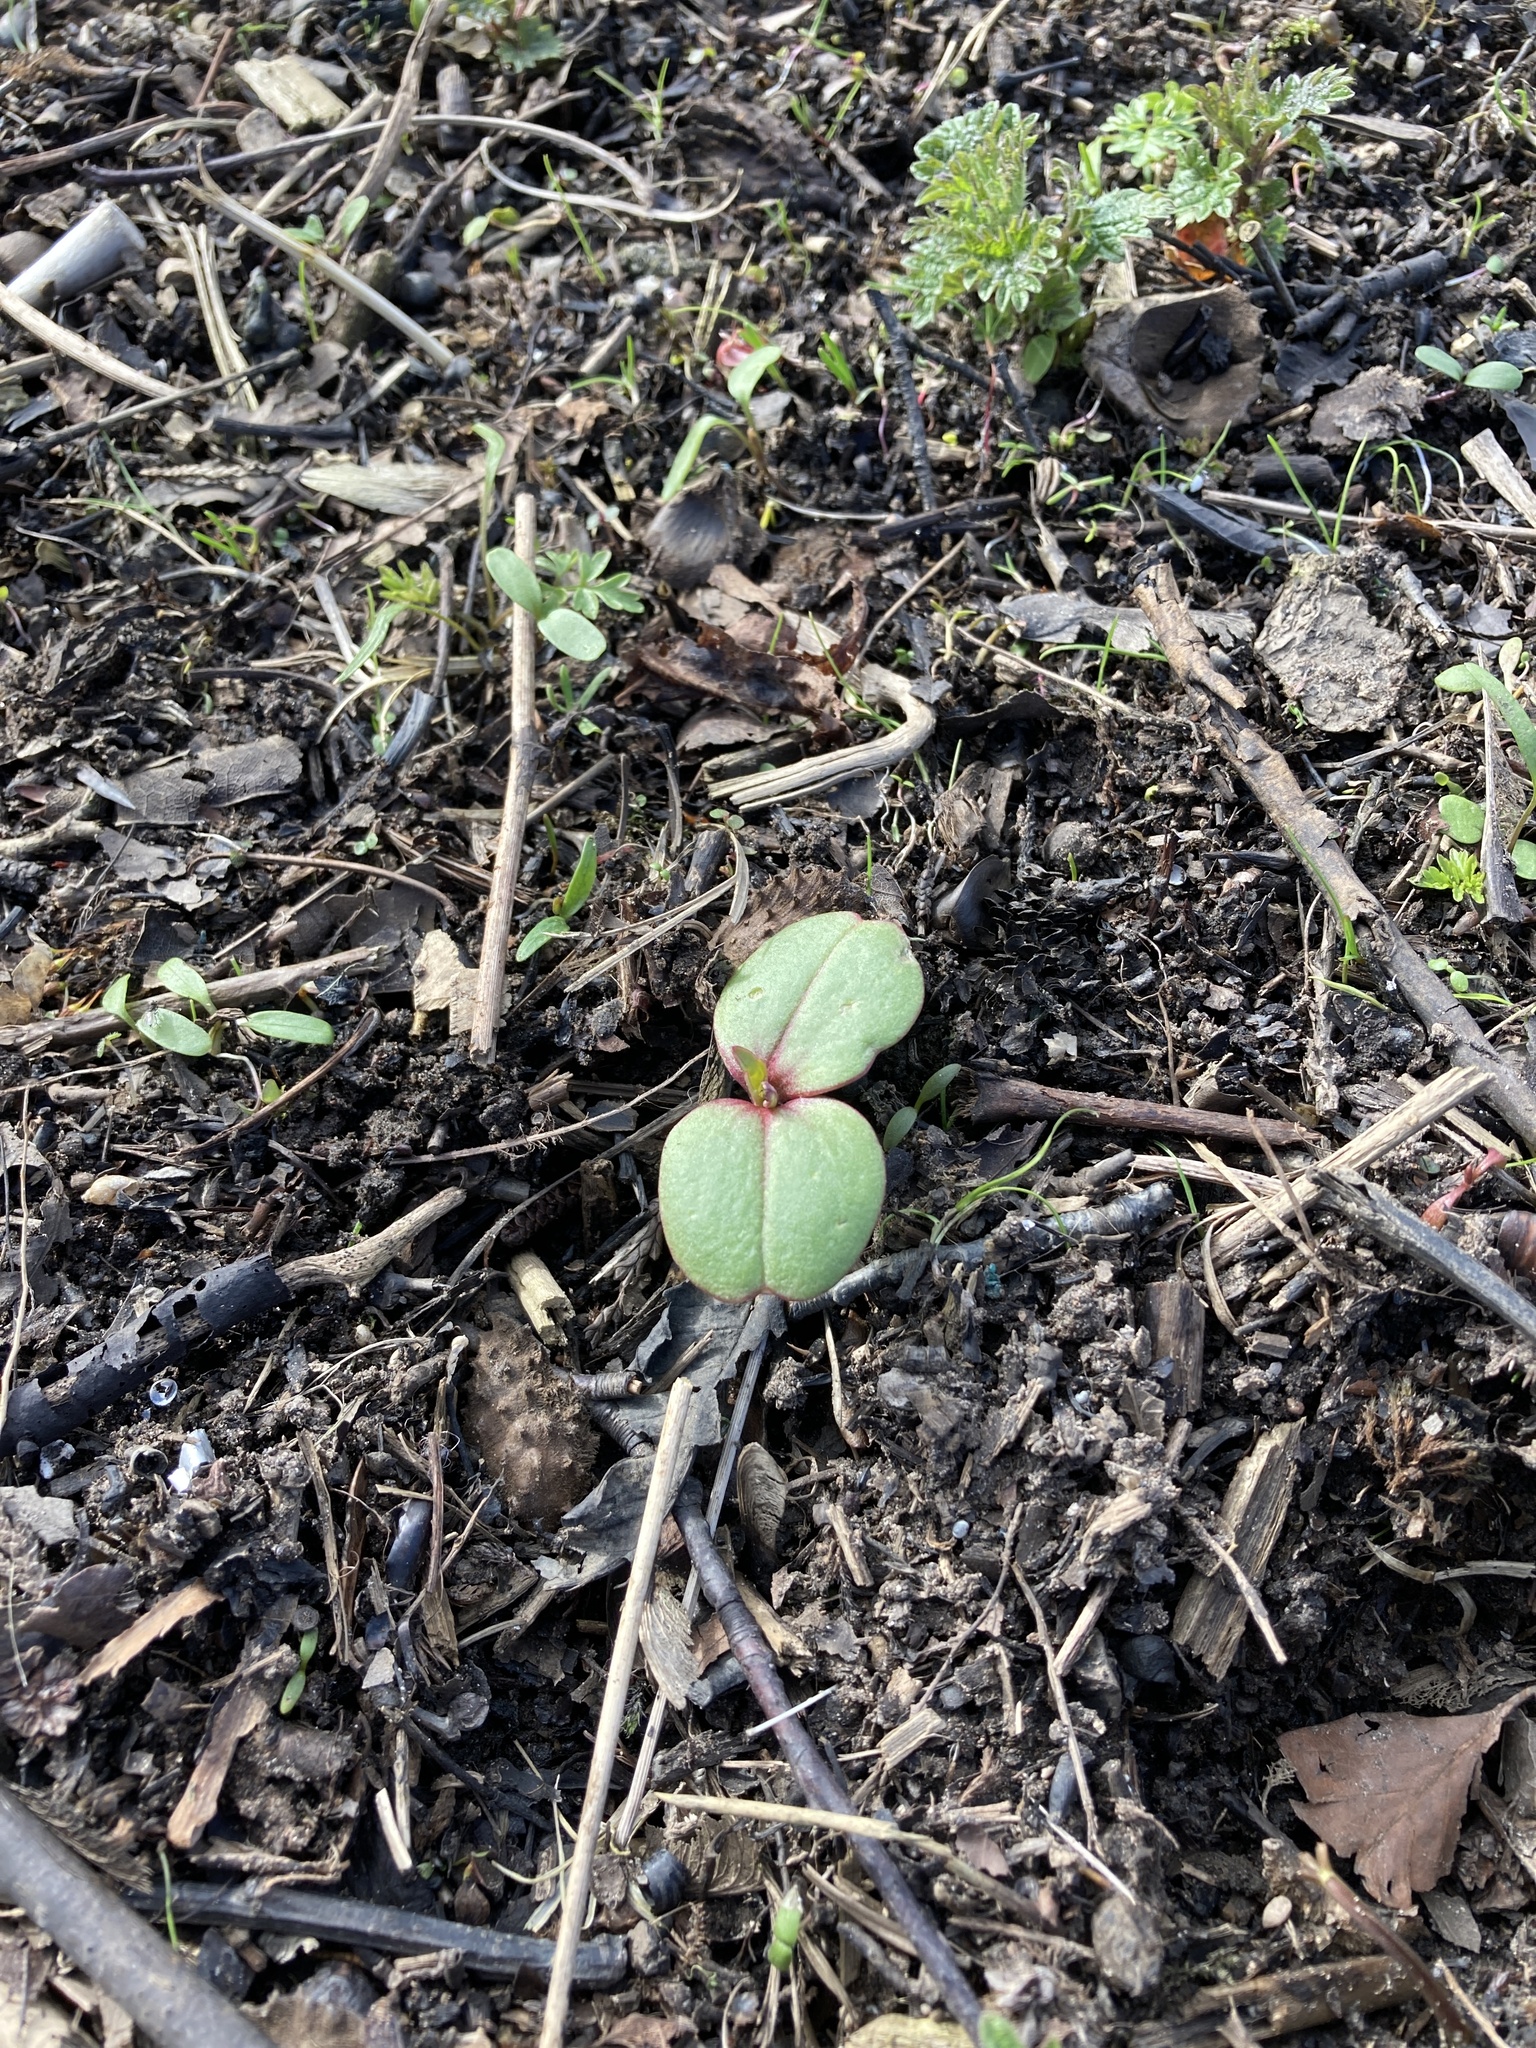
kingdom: Plantae
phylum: Tracheophyta
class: Magnoliopsida
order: Ericales
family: Balsaminaceae
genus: Impatiens
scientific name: Impatiens glandulifera
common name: Himalayan balsam
